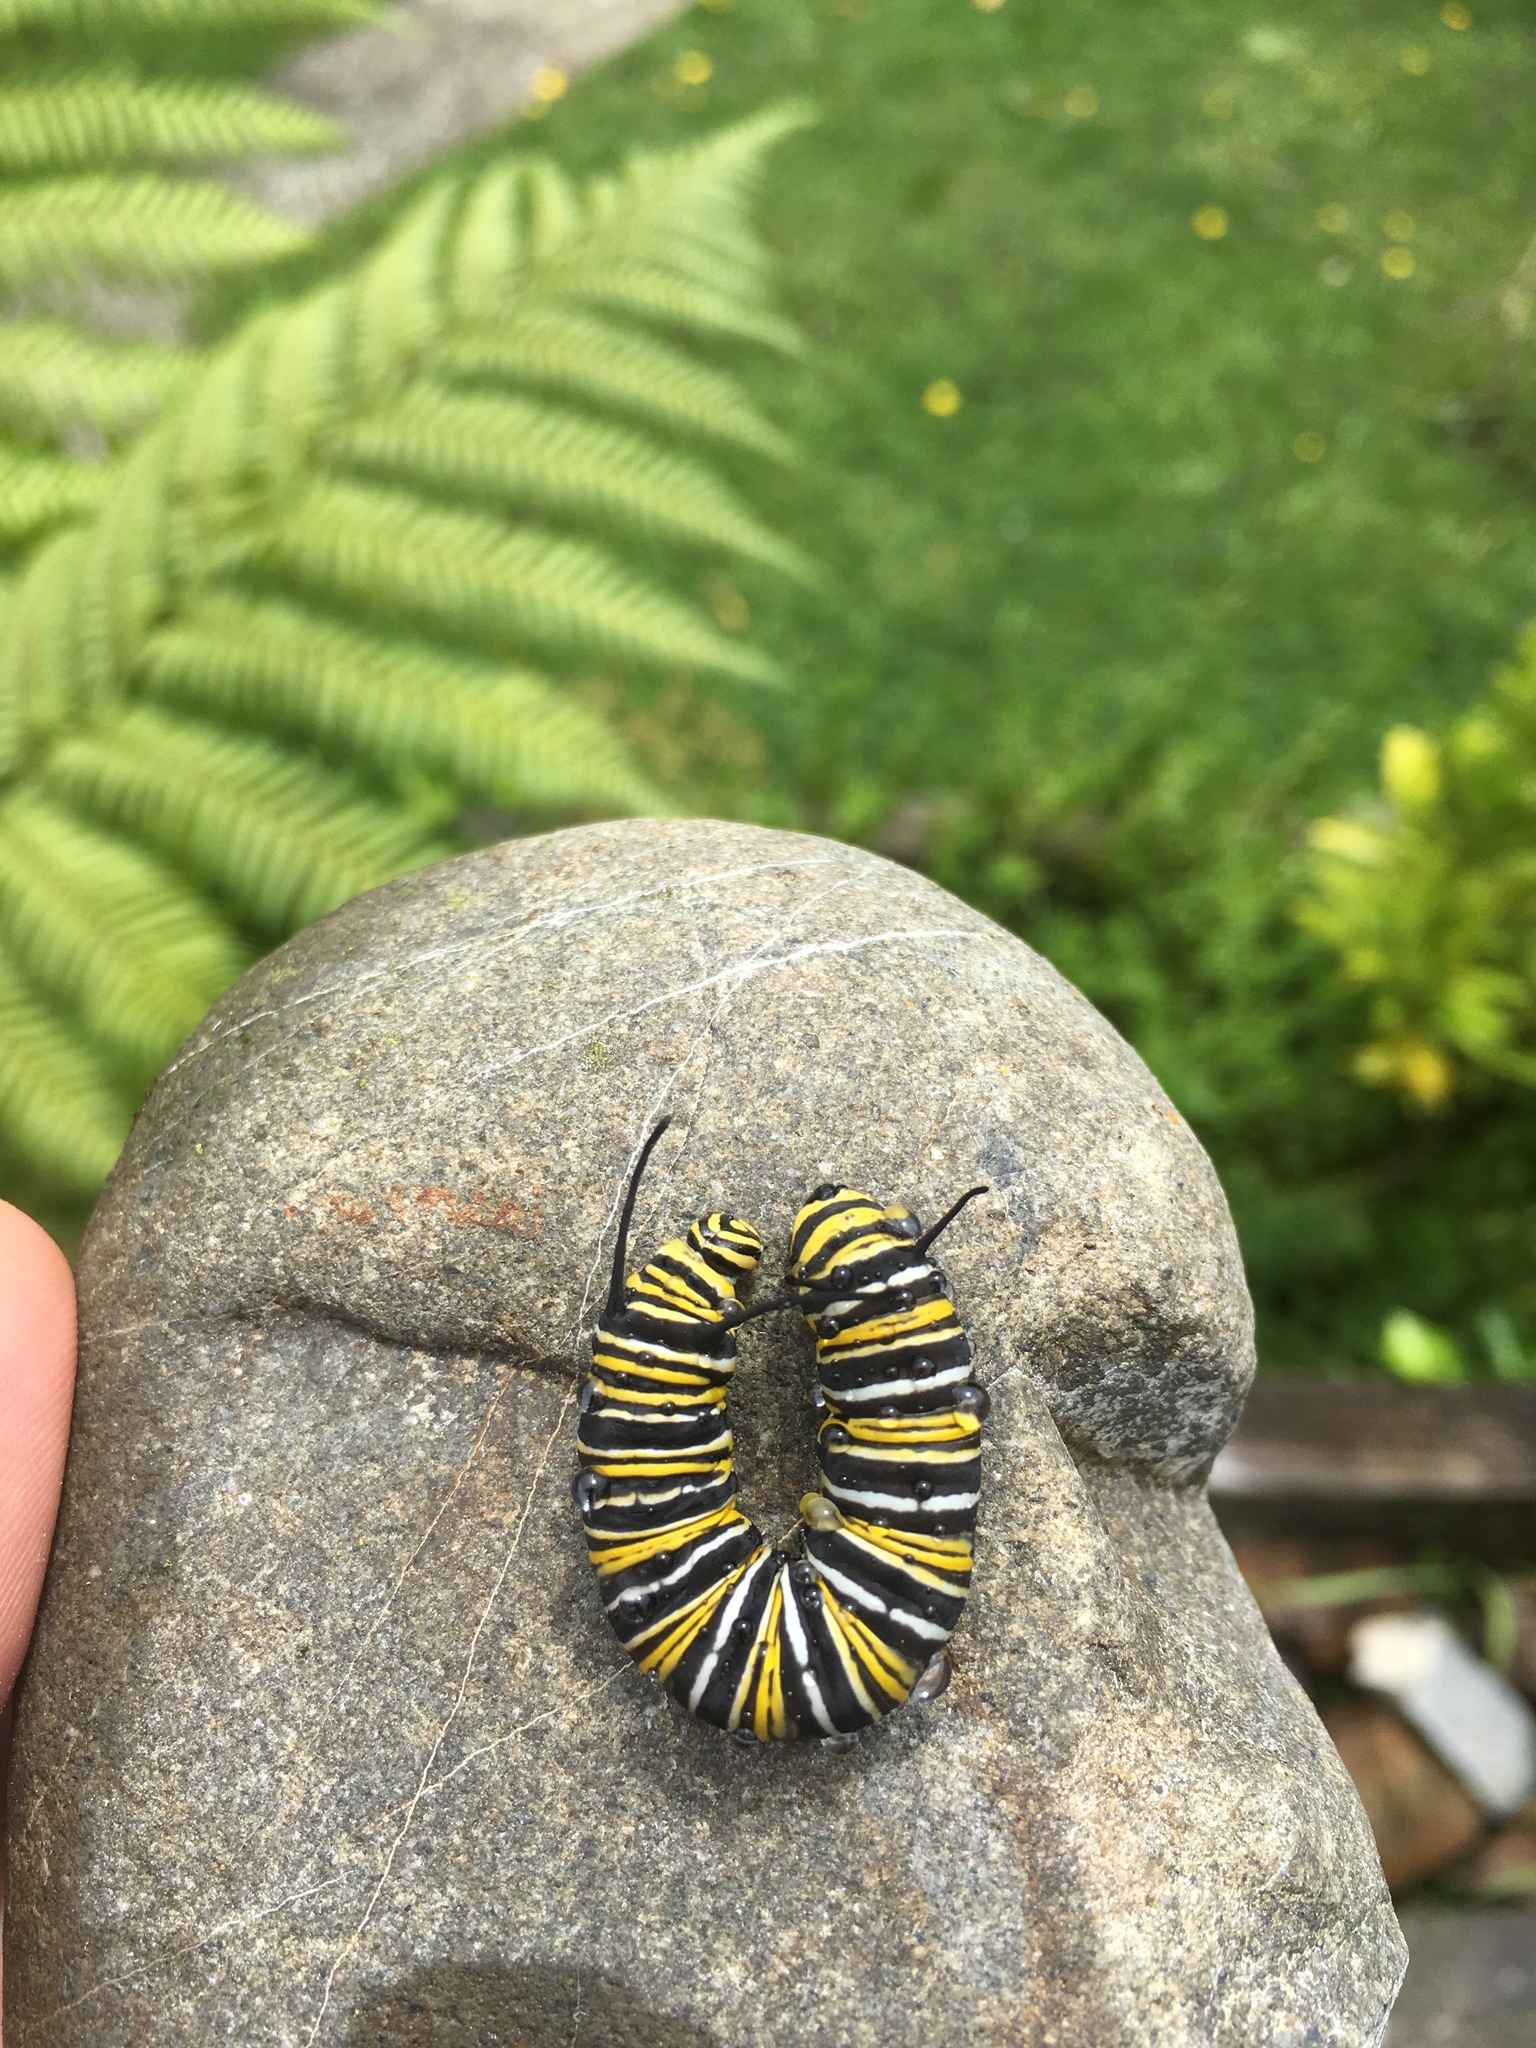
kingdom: Animalia
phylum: Arthropoda
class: Insecta
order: Lepidoptera
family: Nymphalidae
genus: Danaus
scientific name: Danaus plexippus
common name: Monarch
